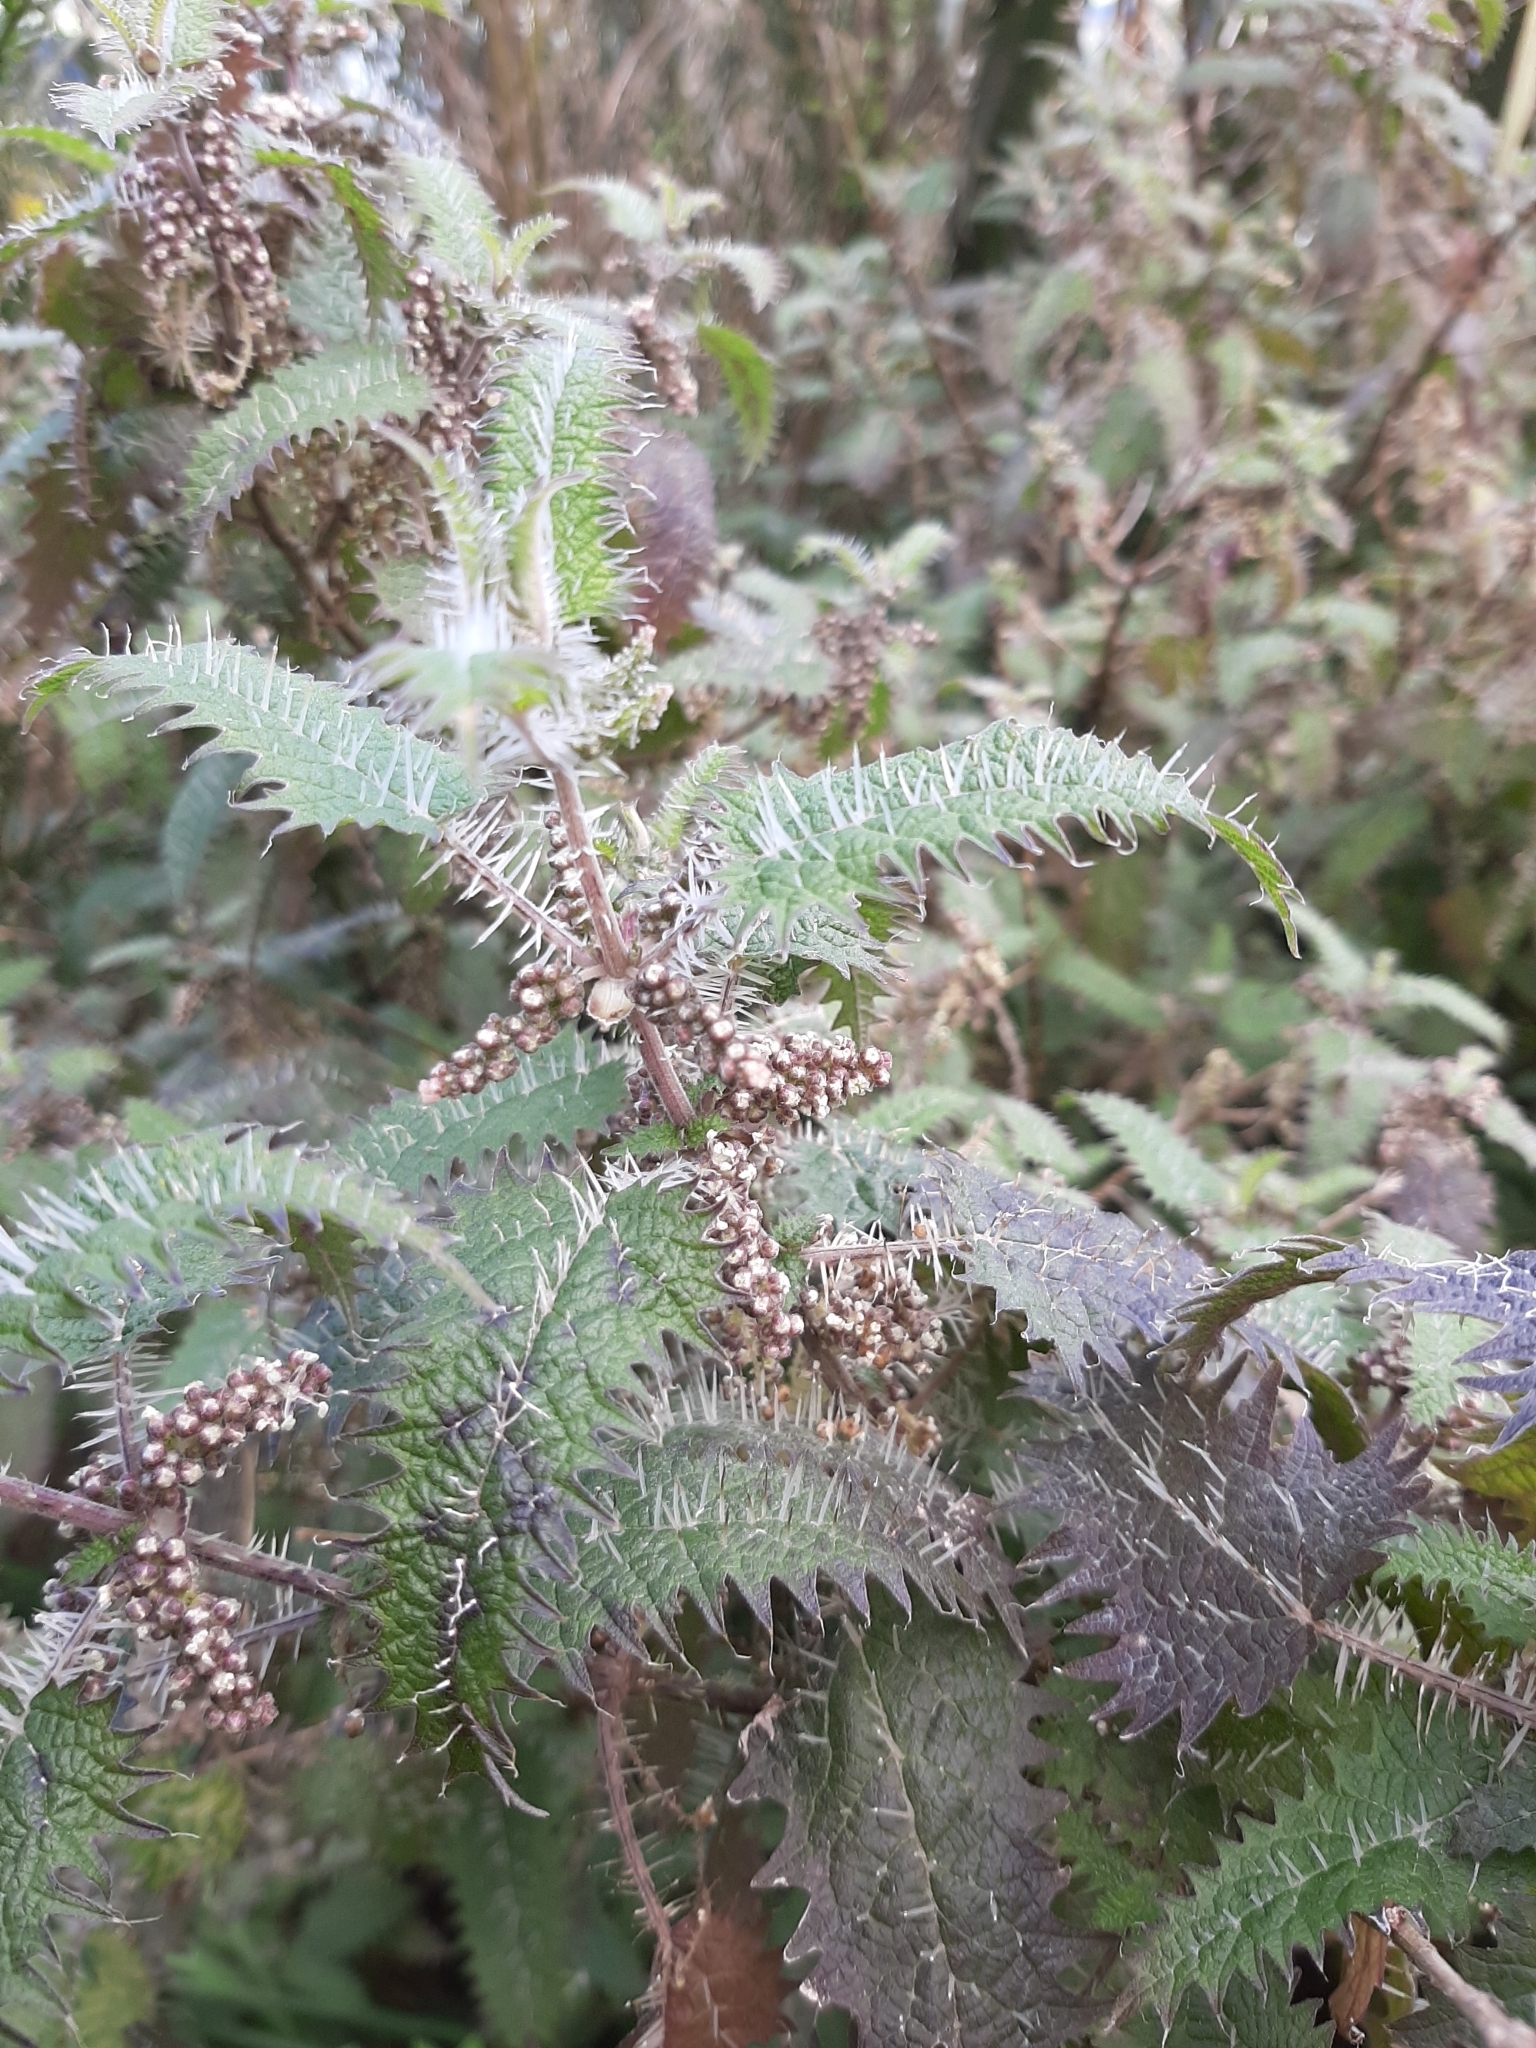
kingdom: Plantae
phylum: Tracheophyta
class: Magnoliopsida
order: Rosales
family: Urticaceae
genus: Urtica
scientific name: Urtica ferox
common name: Tree nettle
